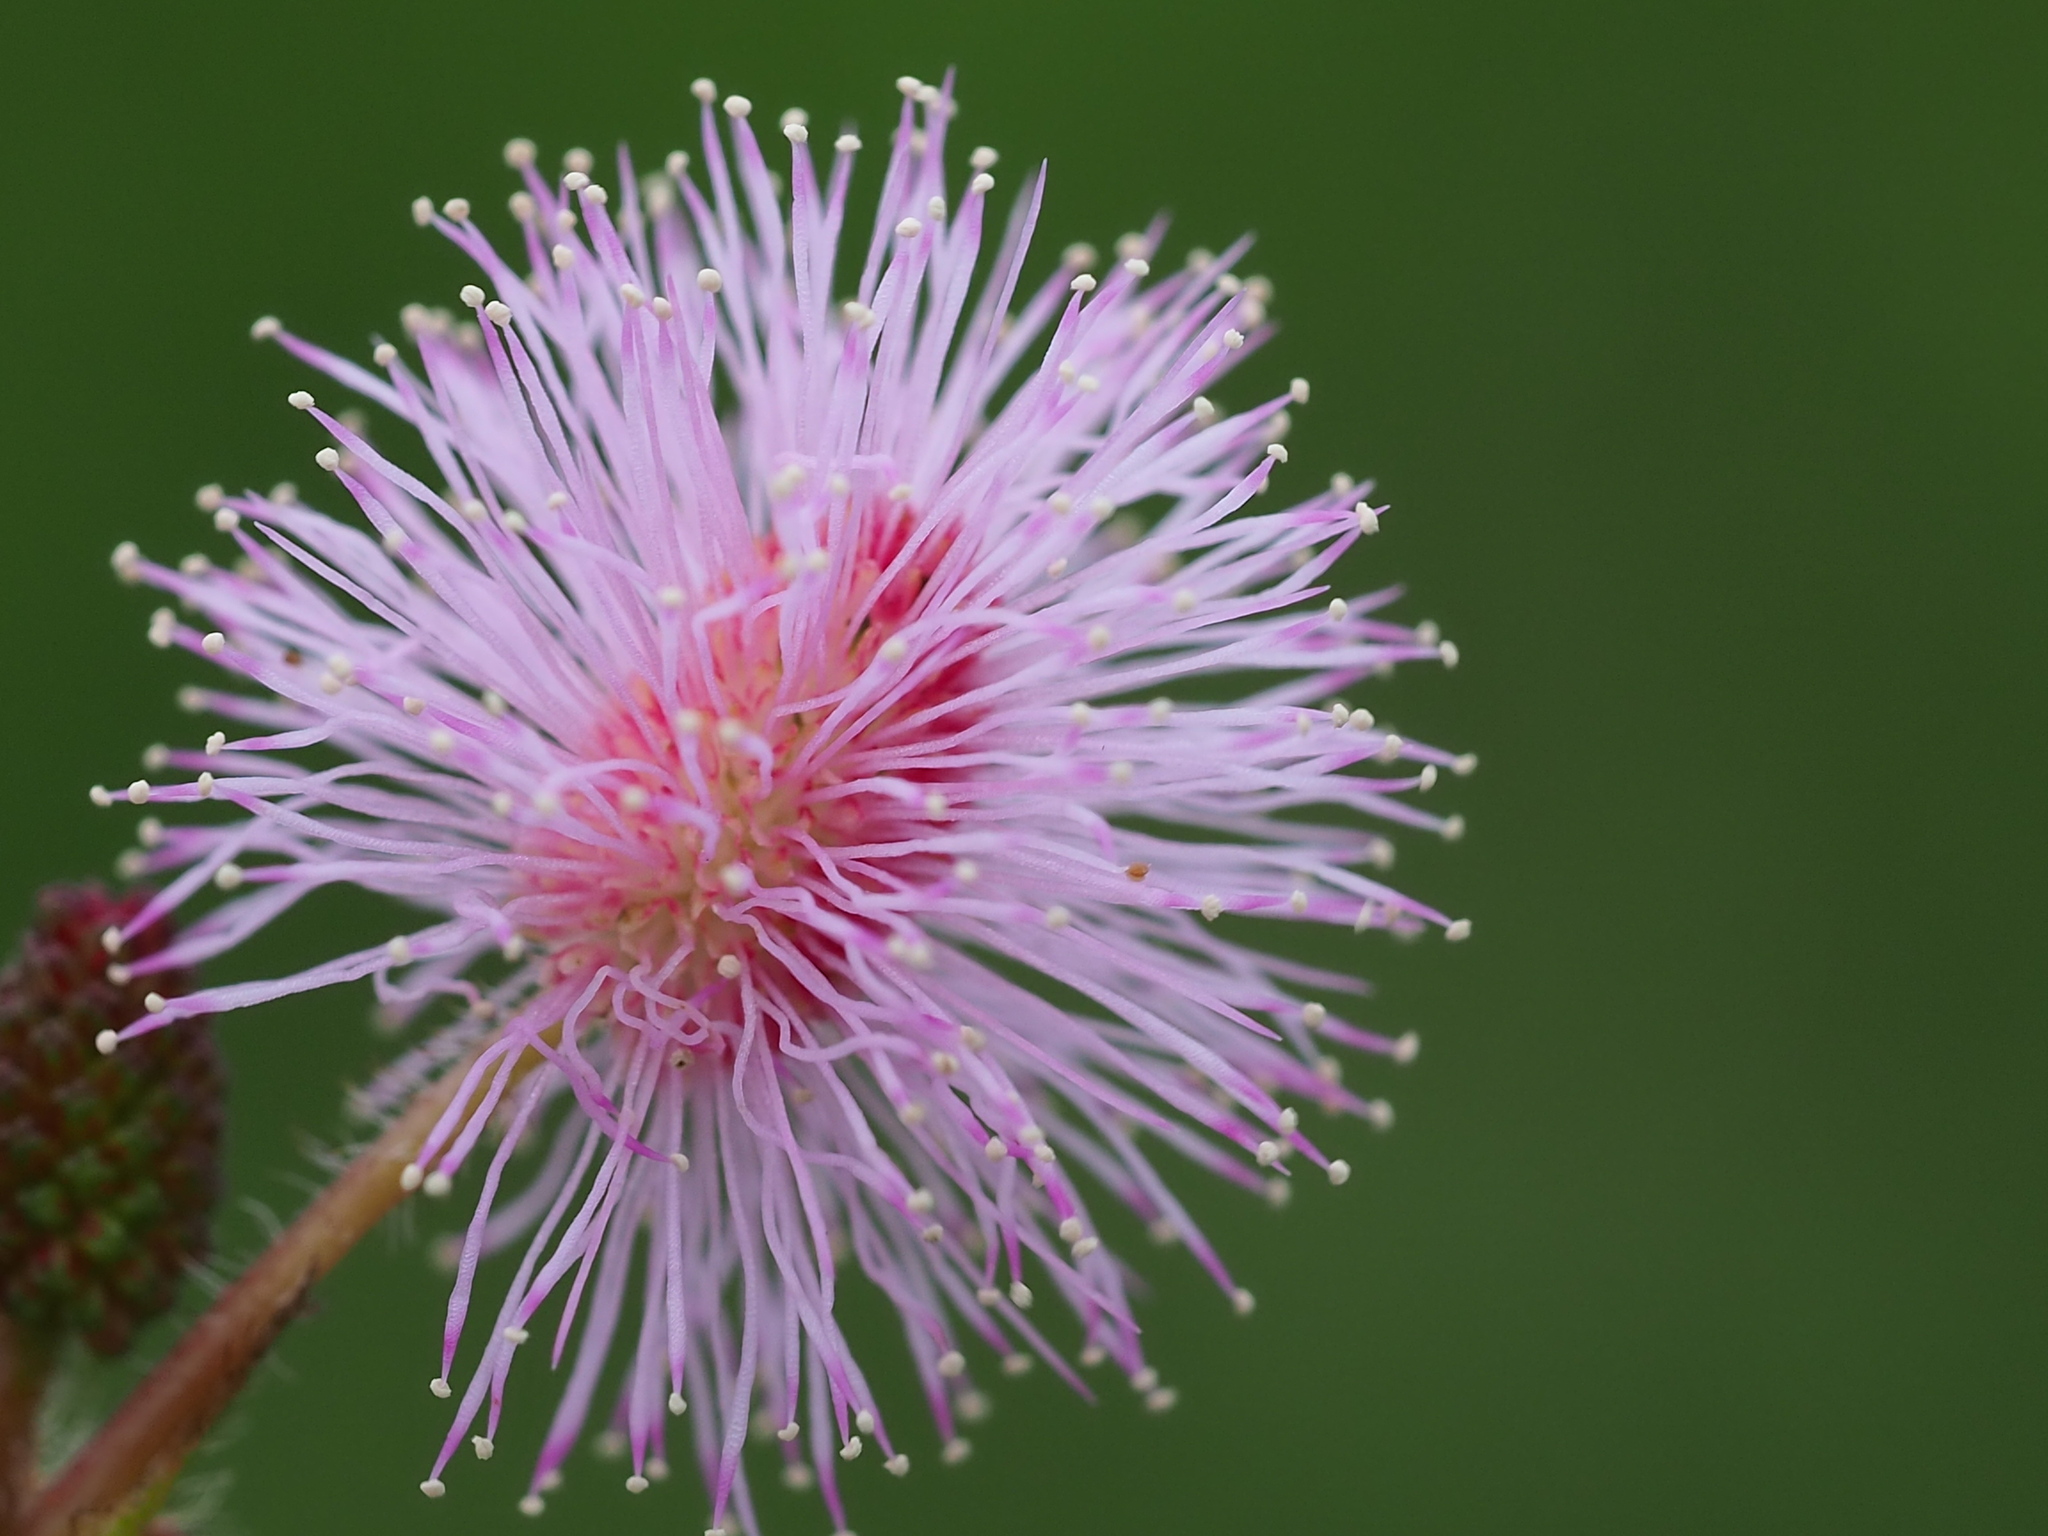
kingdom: Plantae
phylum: Tracheophyta
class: Magnoliopsida
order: Fabales
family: Fabaceae
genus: Mimosa
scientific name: Mimosa pudica
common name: Sensitive plant
